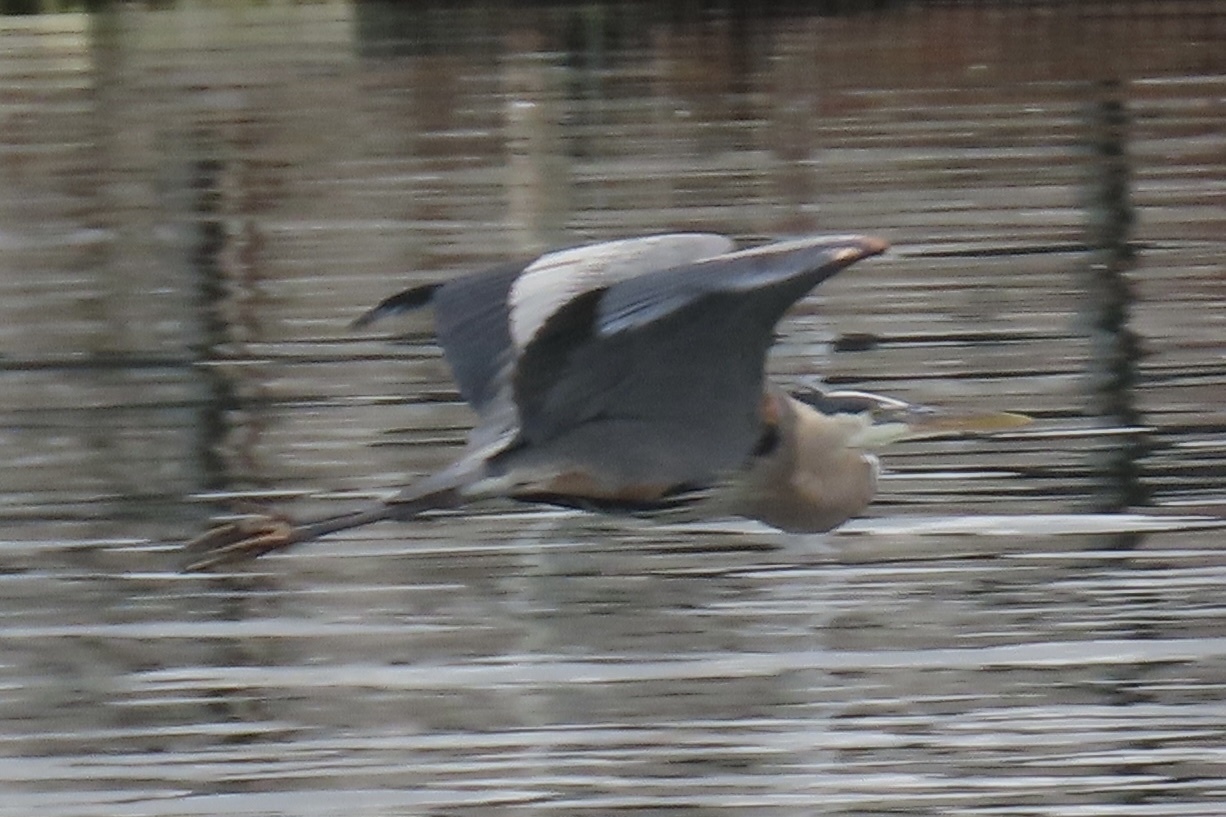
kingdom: Animalia
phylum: Chordata
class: Aves
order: Pelecaniformes
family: Ardeidae
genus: Ardea
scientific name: Ardea herodias
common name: Great blue heron
